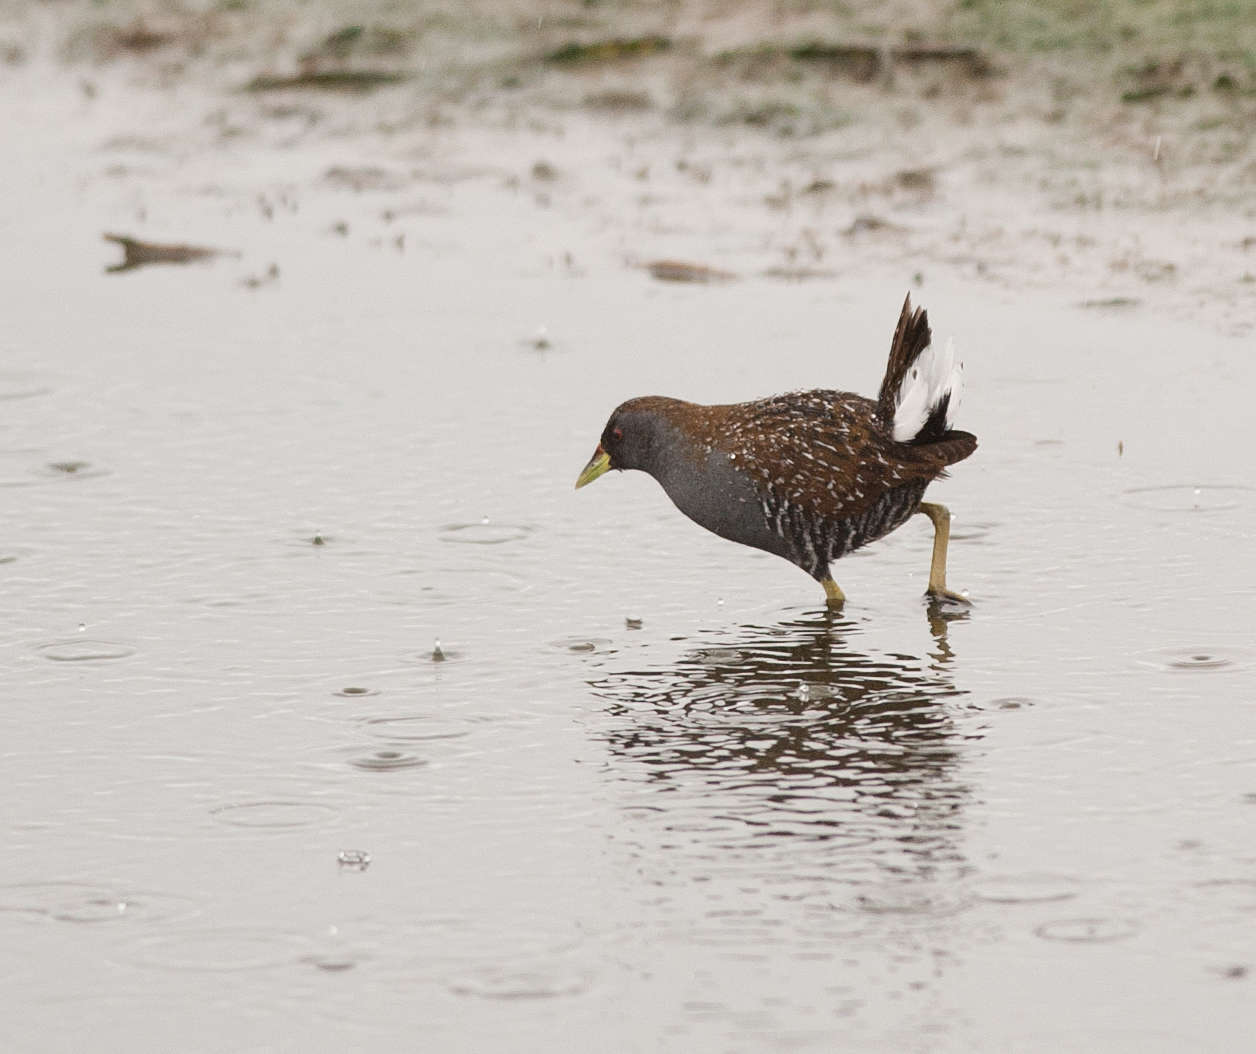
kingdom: Animalia
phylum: Chordata
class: Aves
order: Gruiformes
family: Rallidae
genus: Porzana
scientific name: Porzana fluminea
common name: Australian crake
